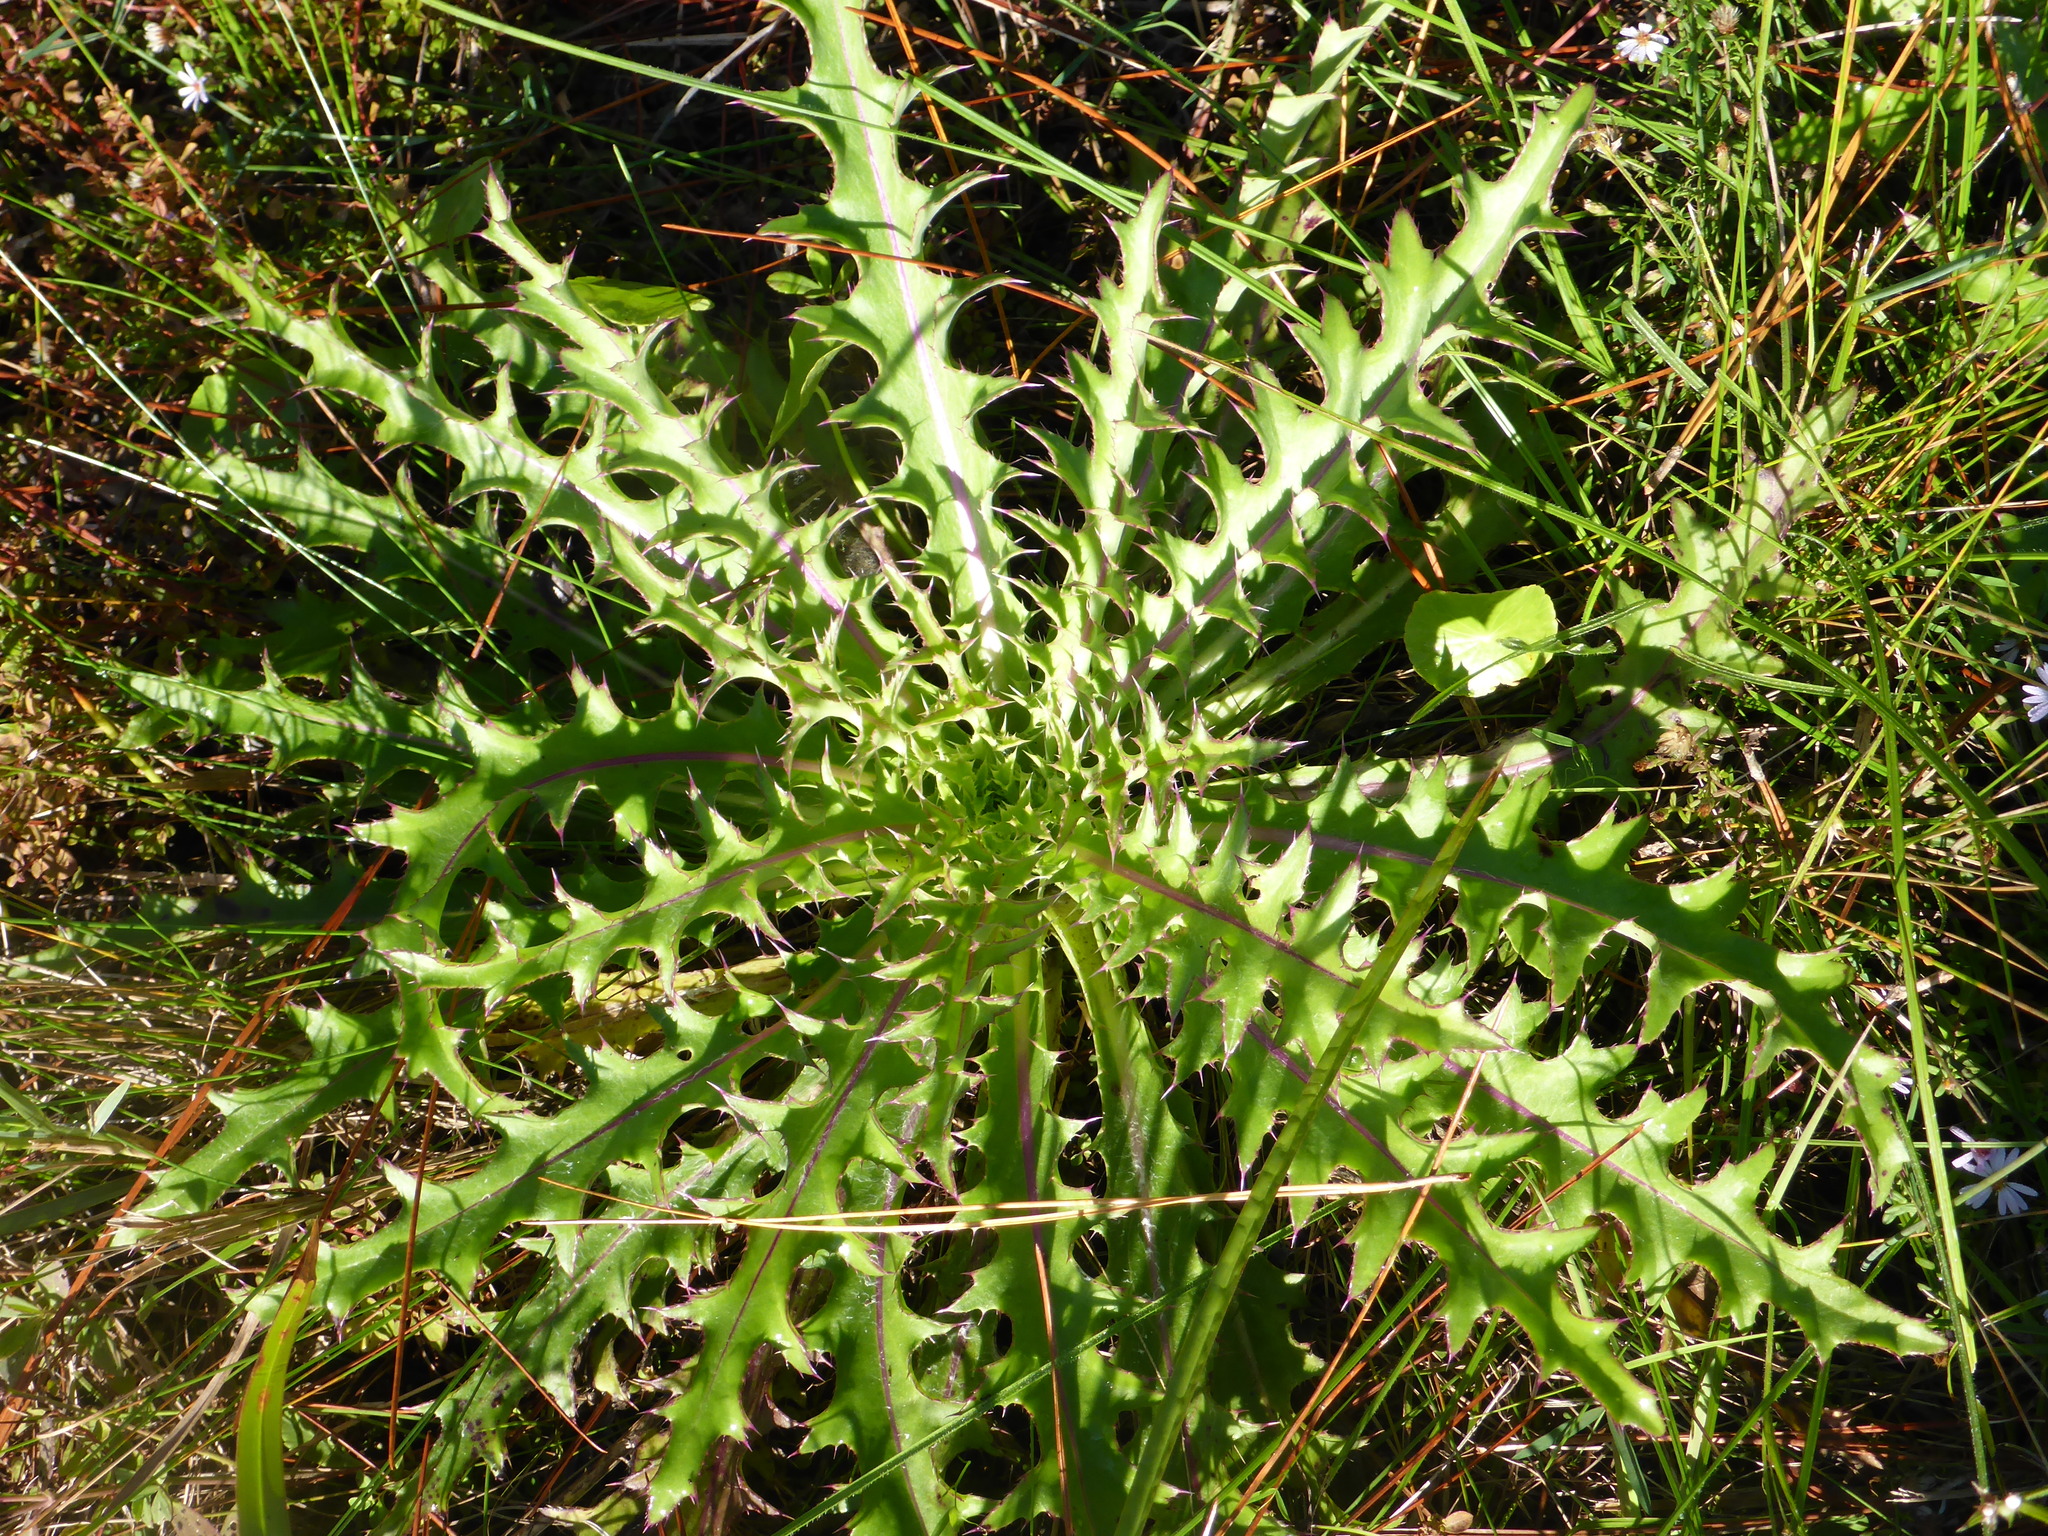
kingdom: Plantae
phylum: Tracheophyta
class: Magnoliopsida
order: Asterales
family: Asteraceae
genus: Cirsium
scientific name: Cirsium horridulum
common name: Bristly thistle
